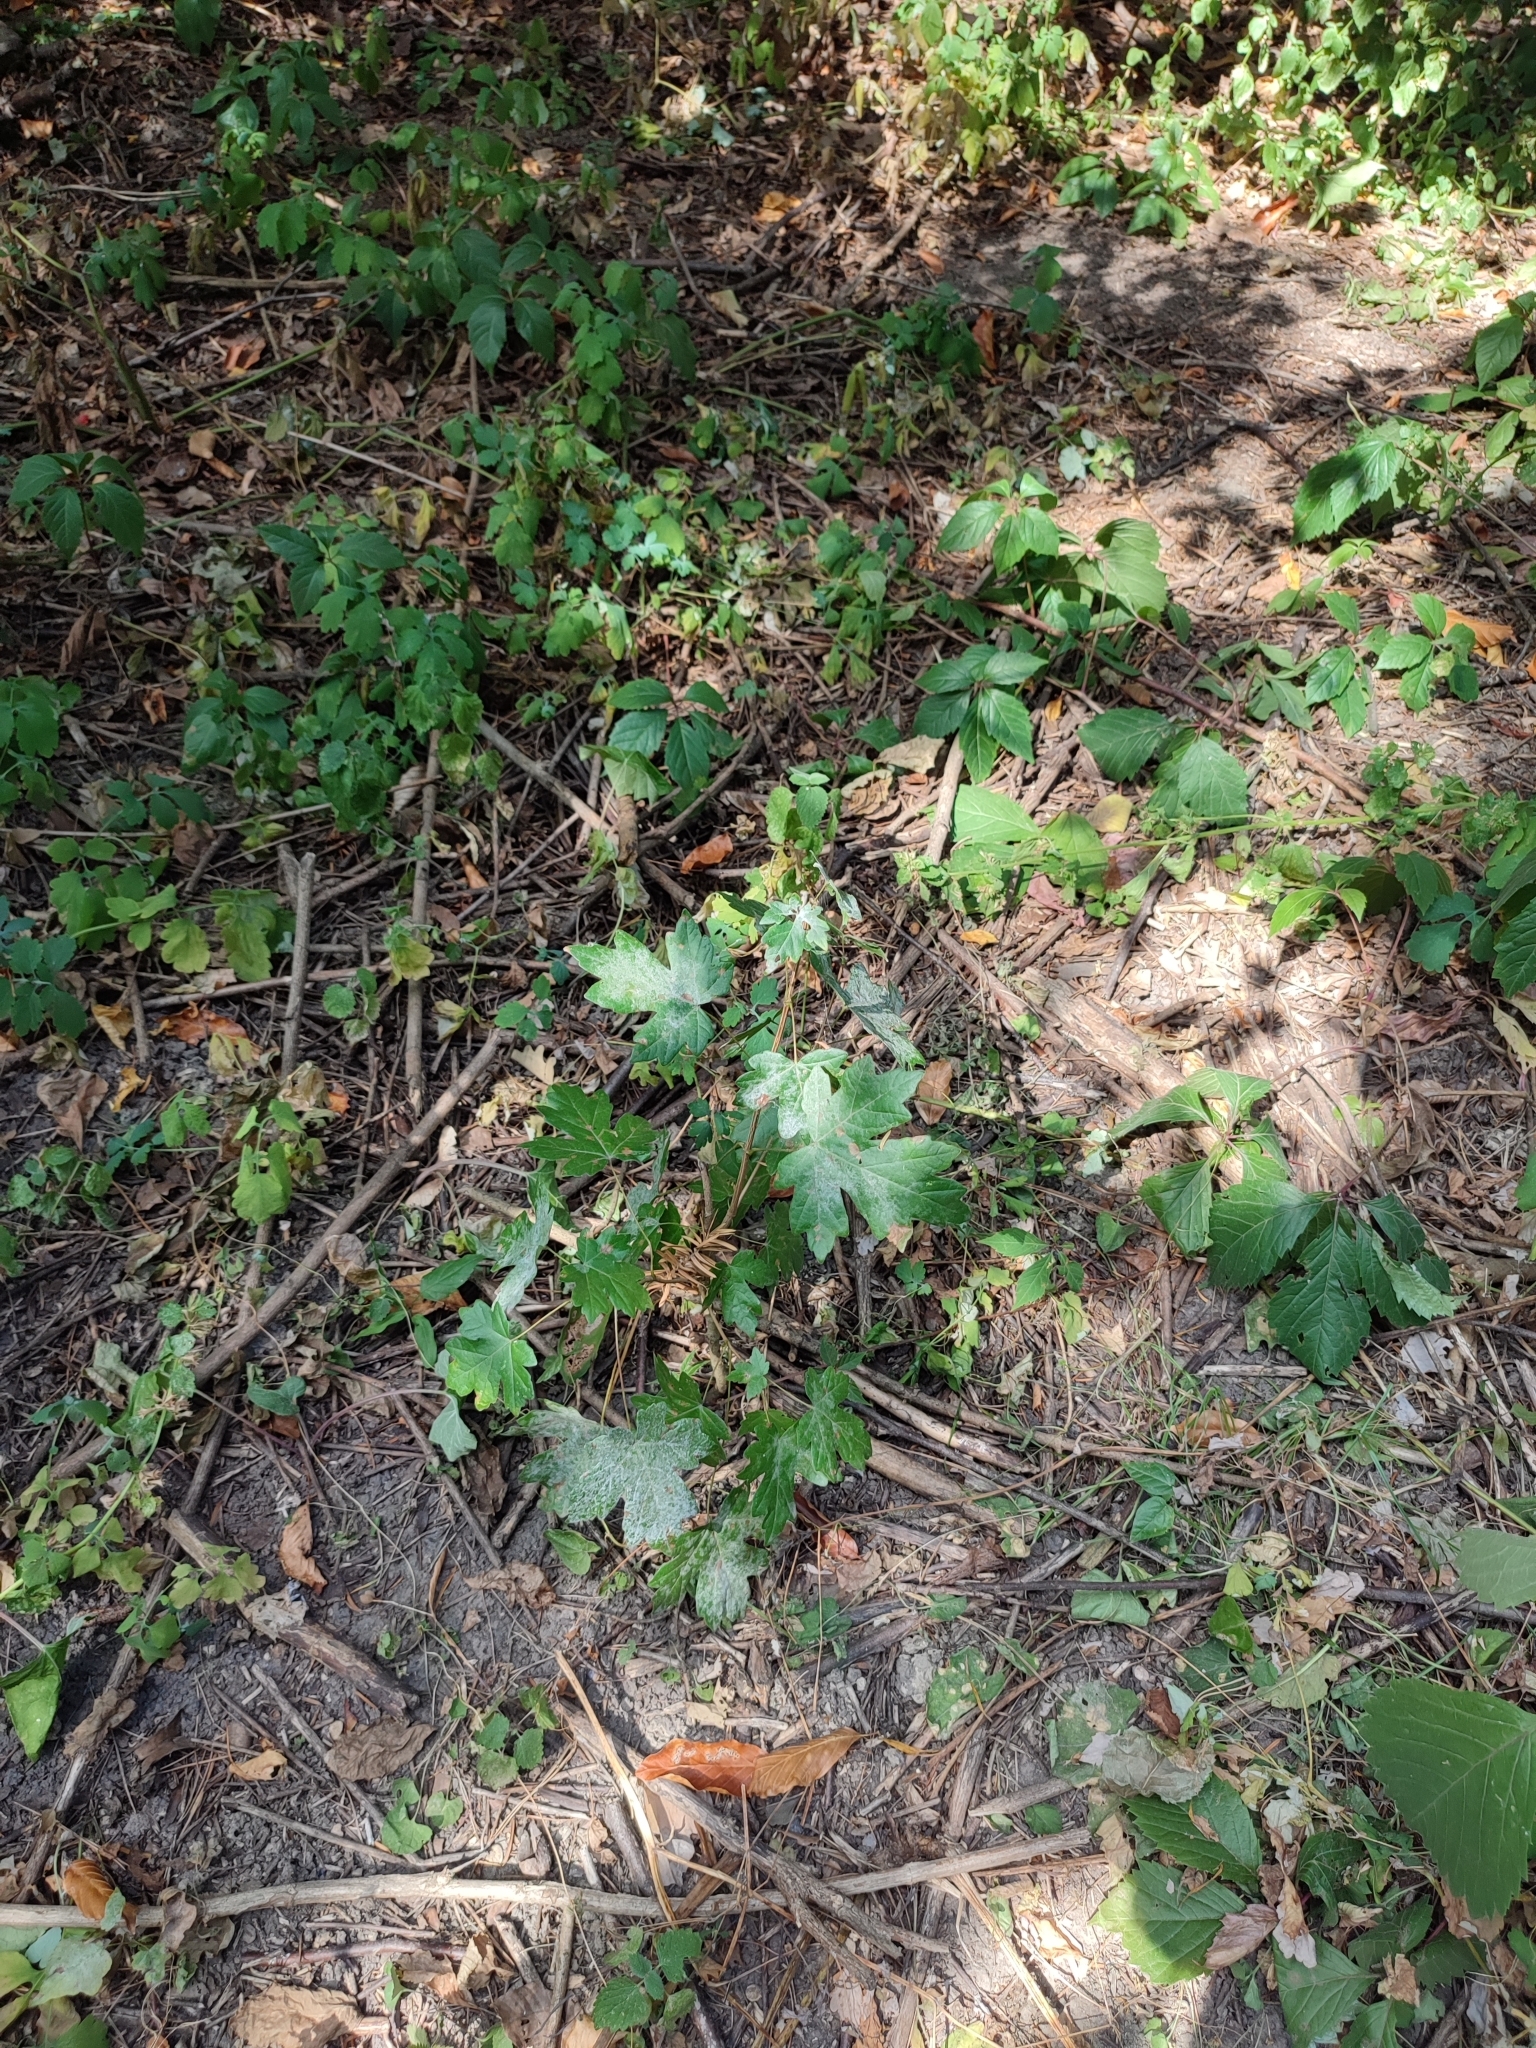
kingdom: Plantae
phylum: Tracheophyta
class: Magnoliopsida
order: Sapindales
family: Sapindaceae
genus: Acer
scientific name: Acer campestre
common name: Field maple
